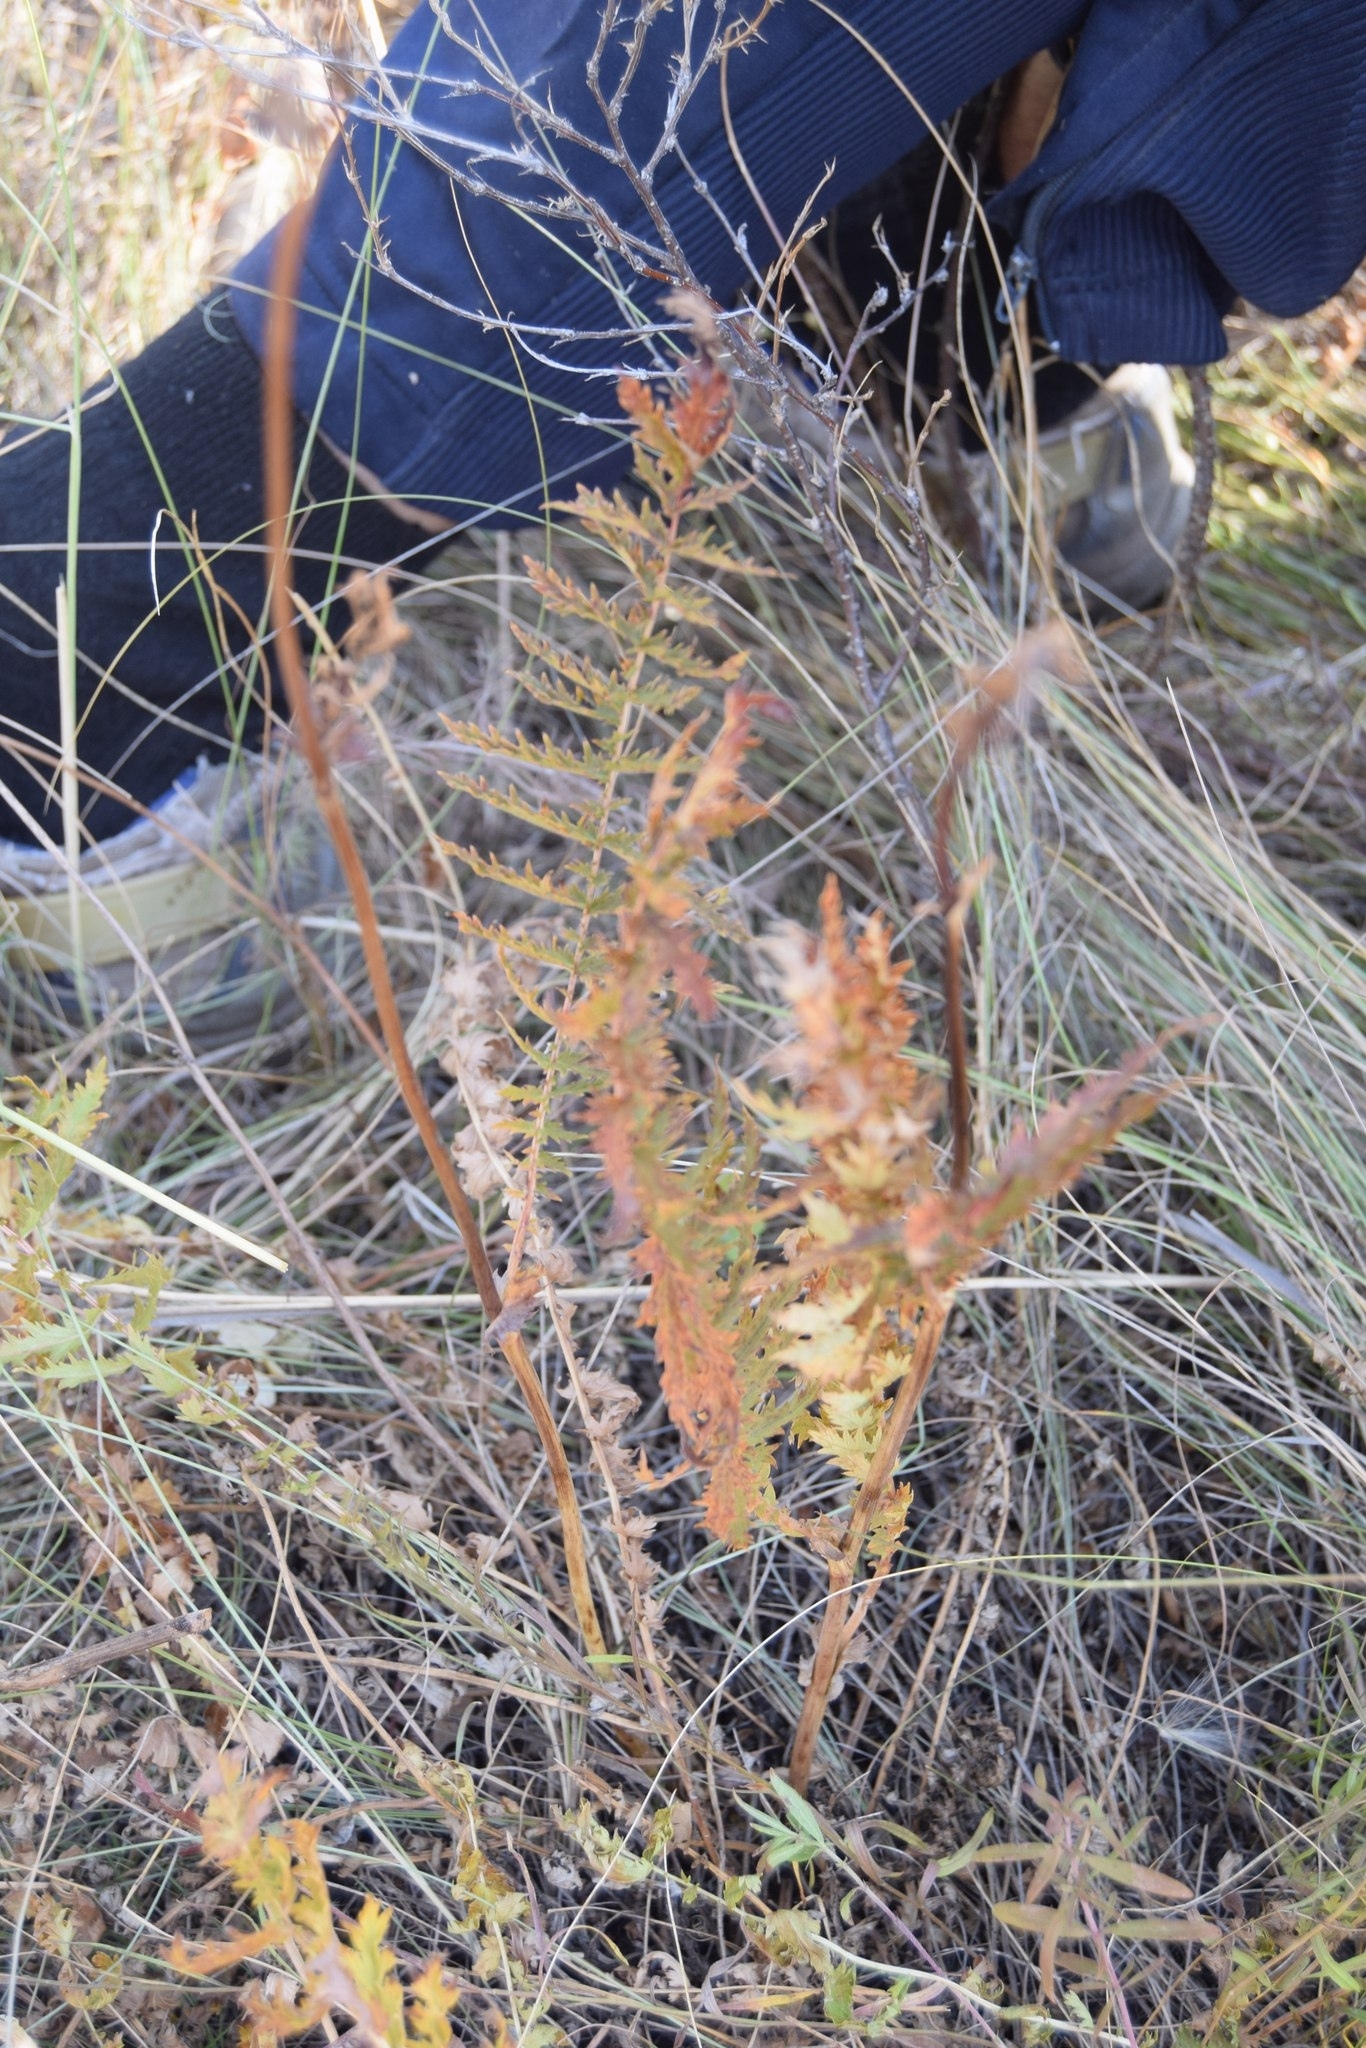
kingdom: Plantae
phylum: Tracheophyta
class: Magnoliopsida
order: Rosales
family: Rosaceae
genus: Filipendula
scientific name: Filipendula vulgaris
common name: Dropwort
